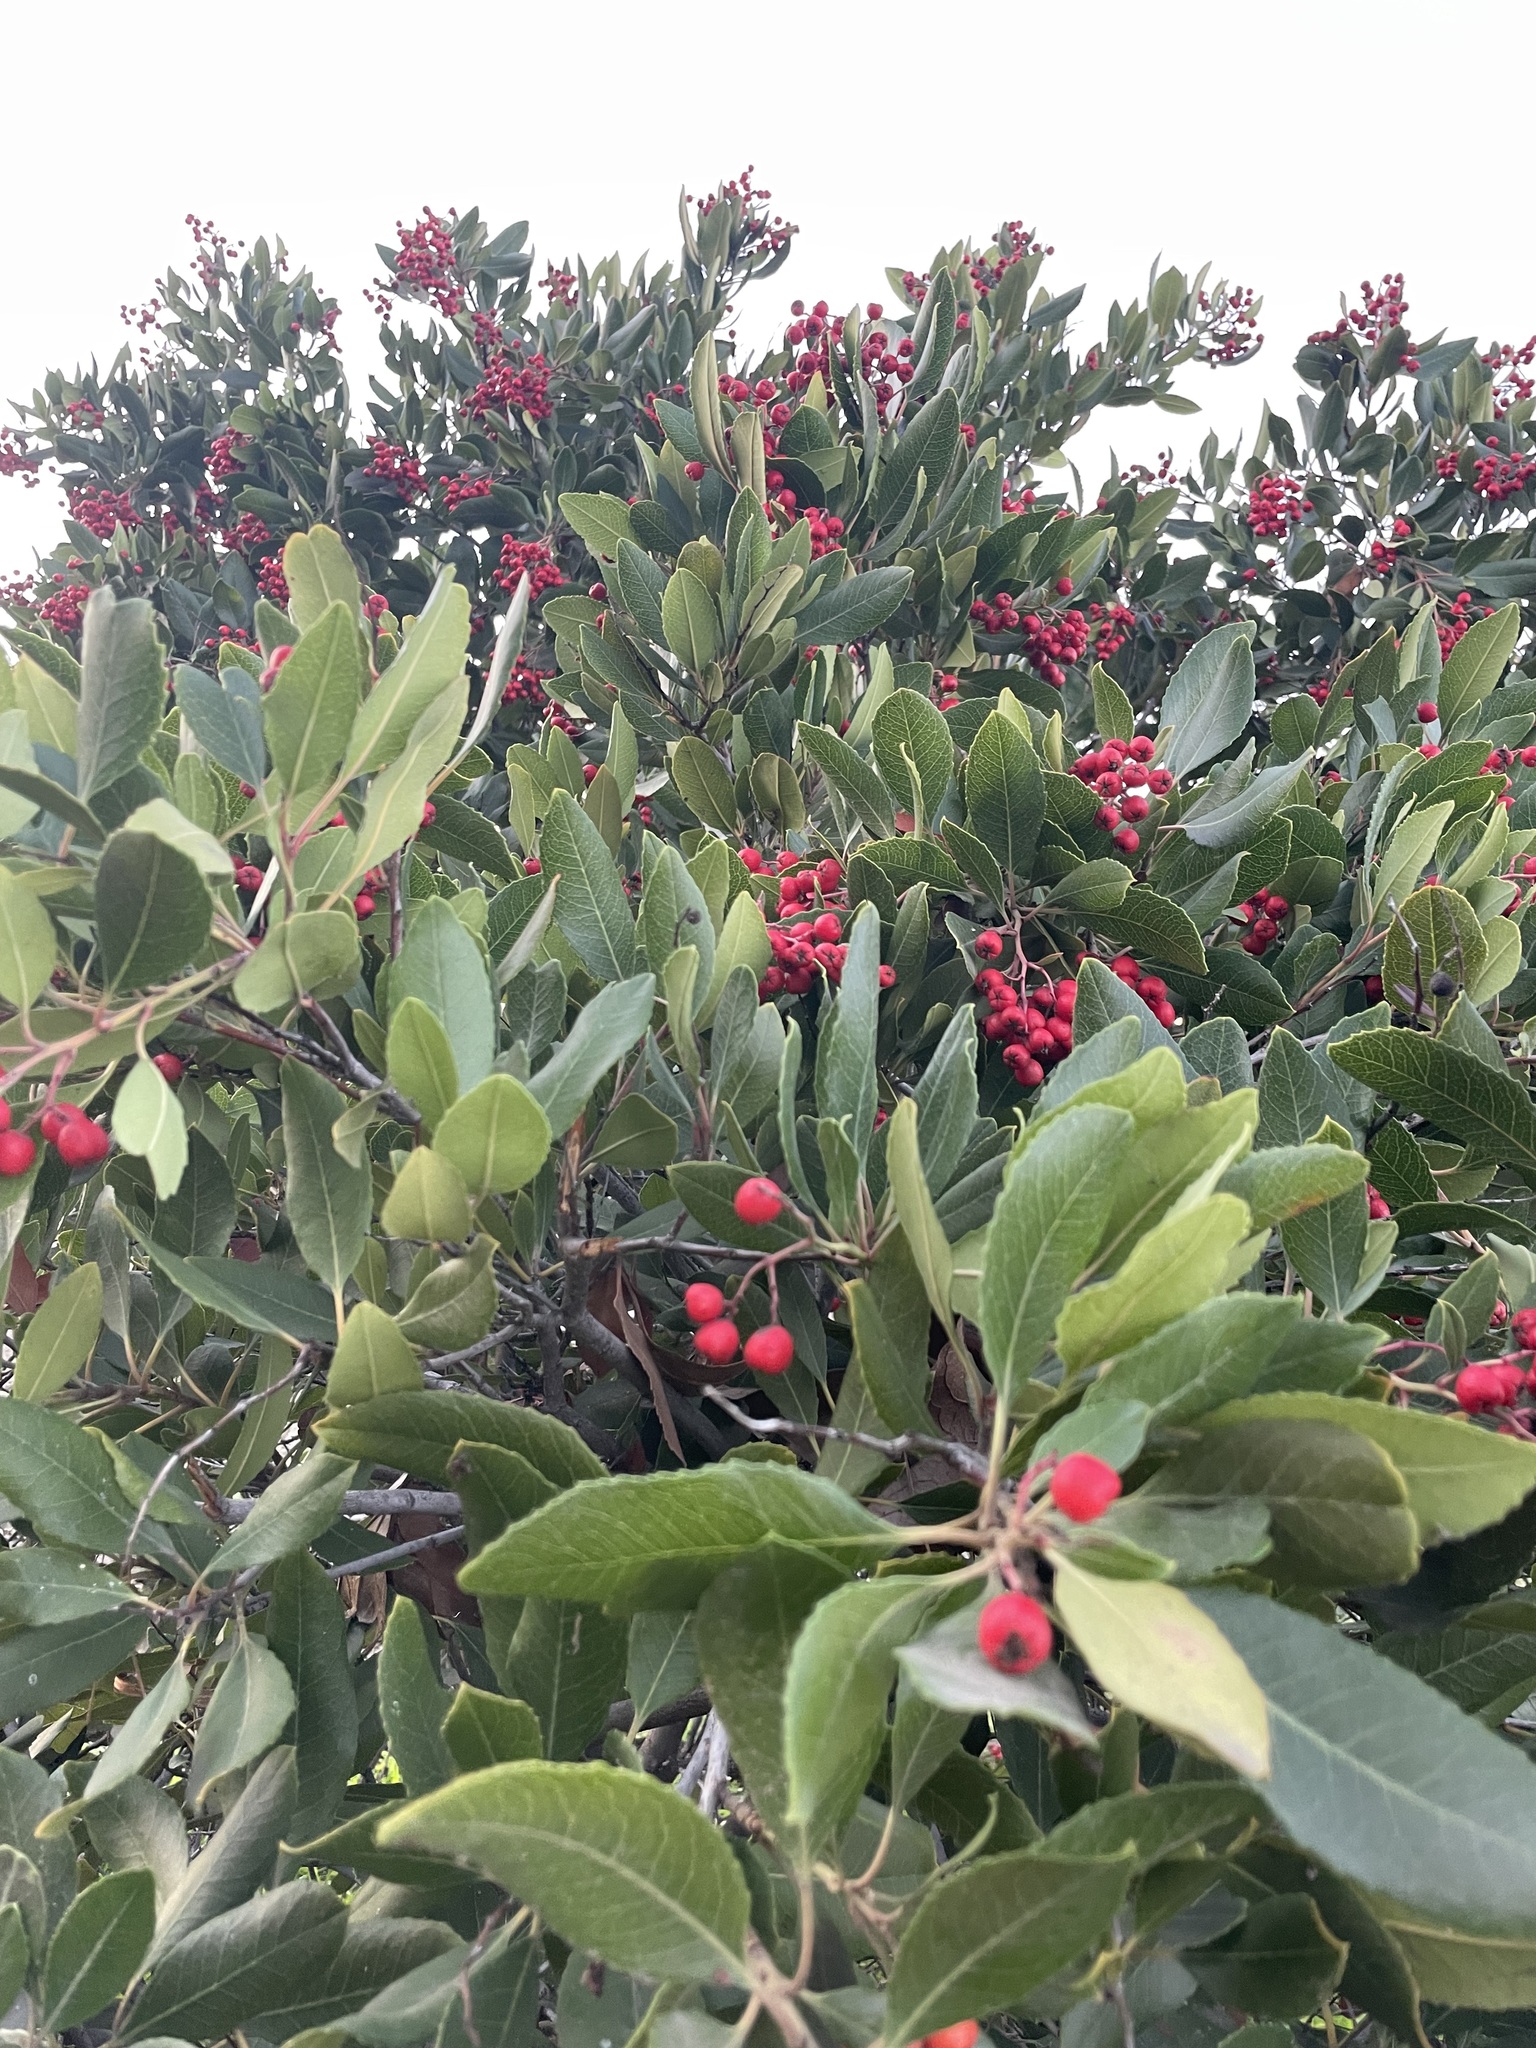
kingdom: Plantae
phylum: Tracheophyta
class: Magnoliopsida
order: Rosales
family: Rosaceae
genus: Heteromeles
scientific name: Heteromeles arbutifolia
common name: California-holly
